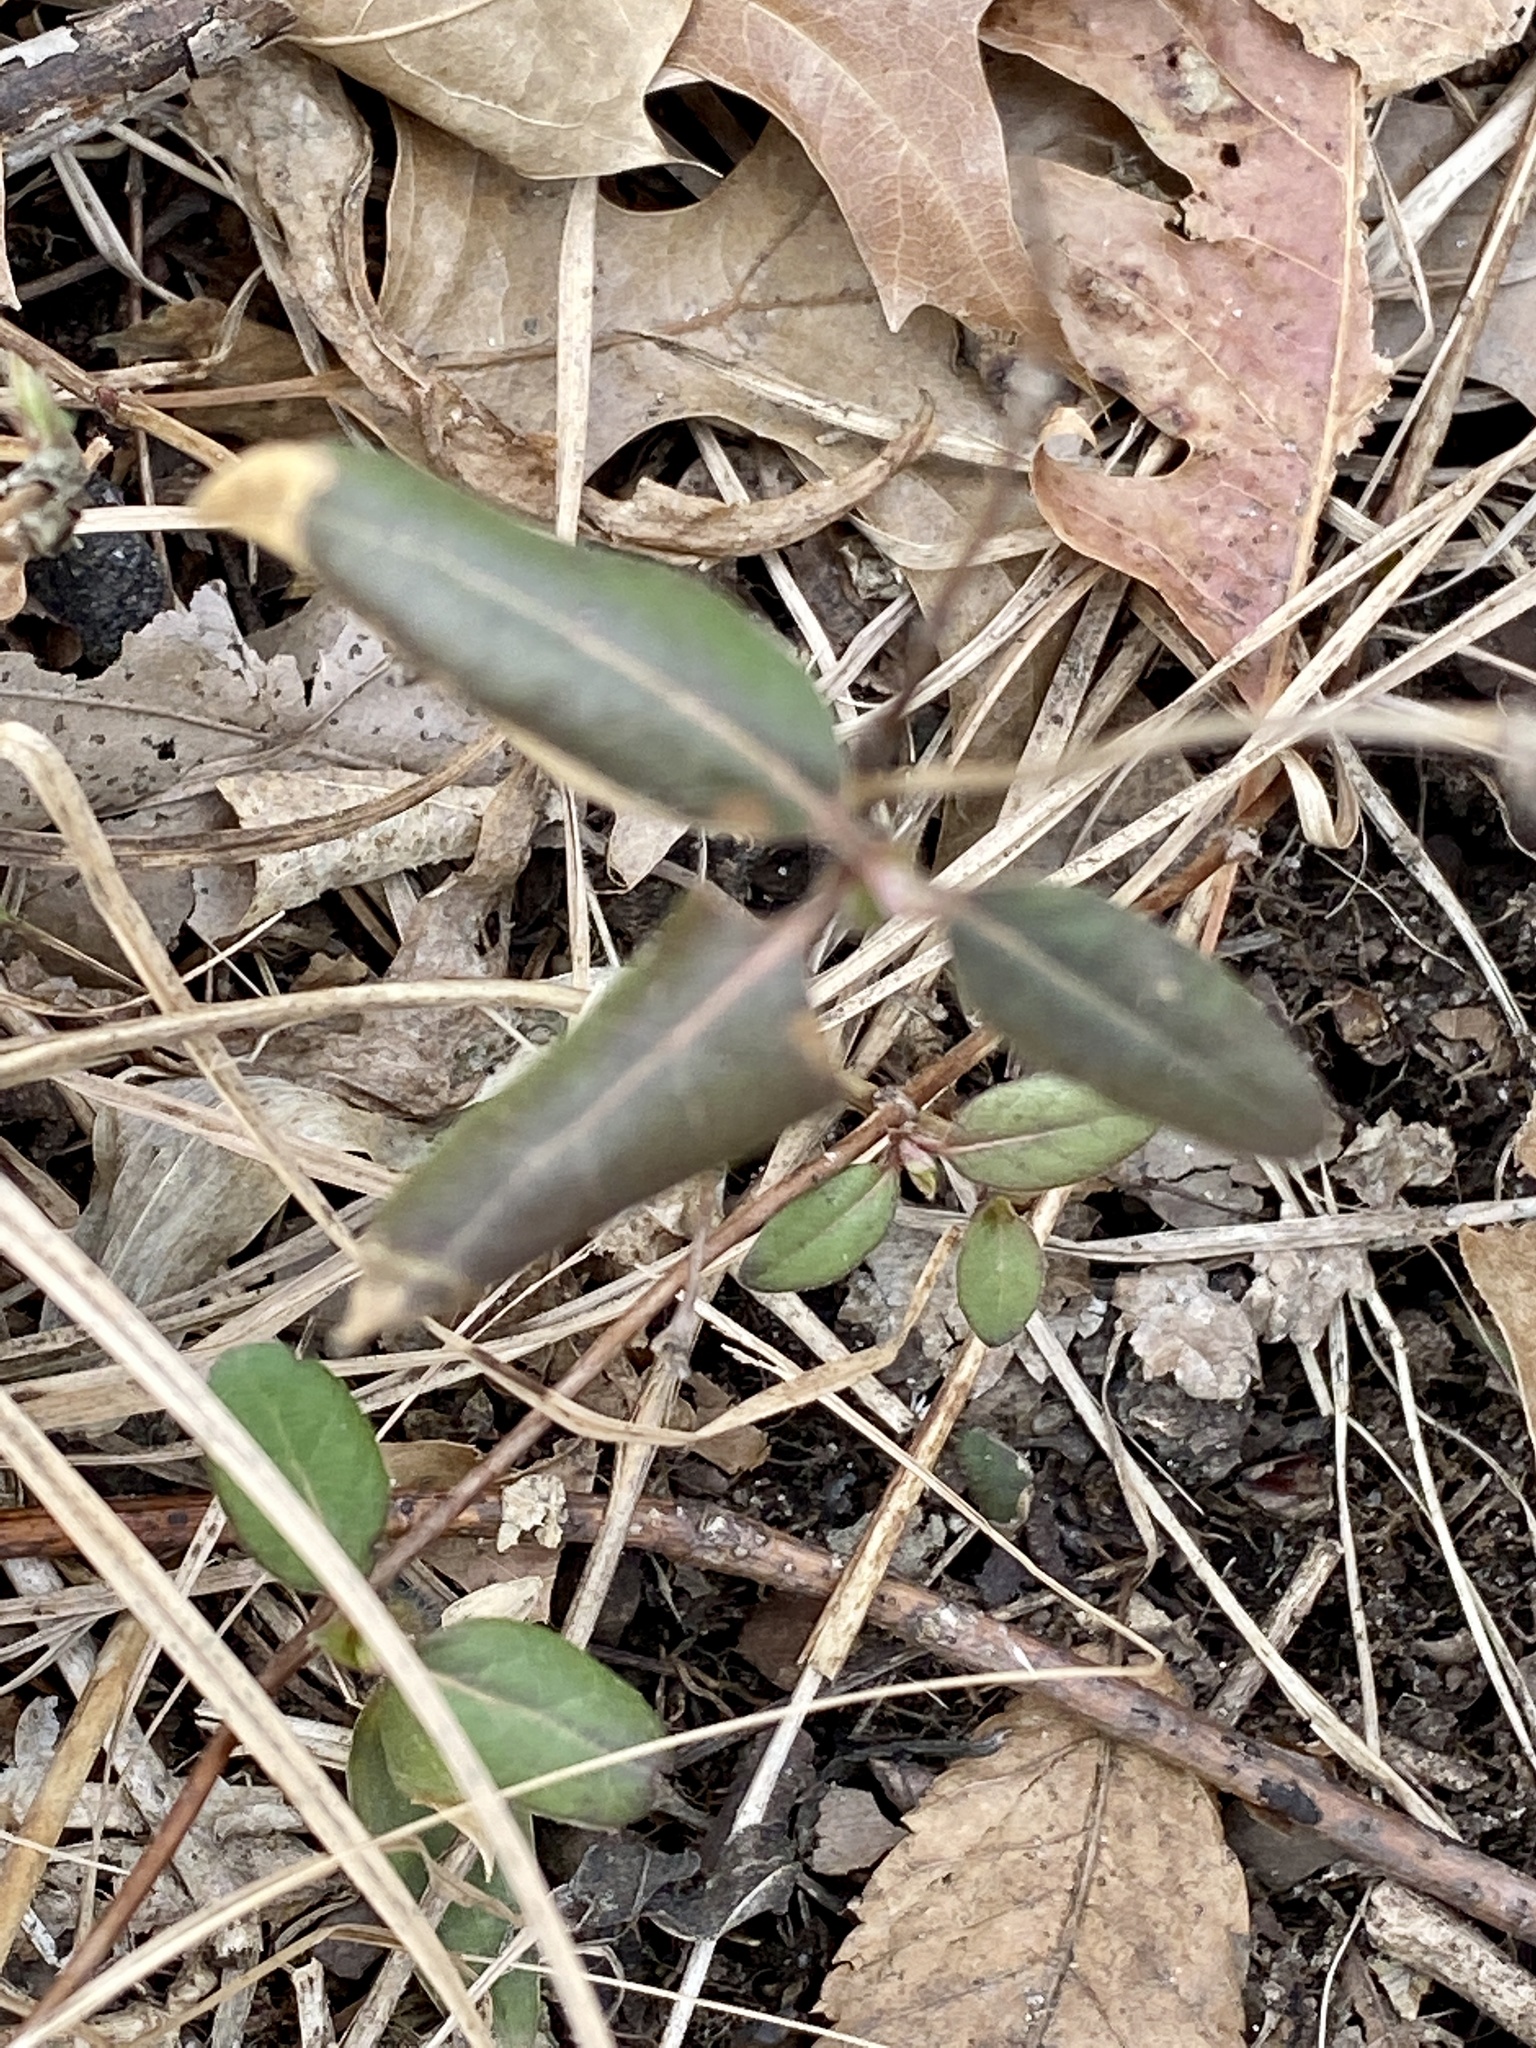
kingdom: Plantae
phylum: Tracheophyta
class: Magnoliopsida
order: Dipsacales
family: Caprifoliaceae
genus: Lonicera
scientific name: Lonicera japonica
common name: Japanese honeysuckle
